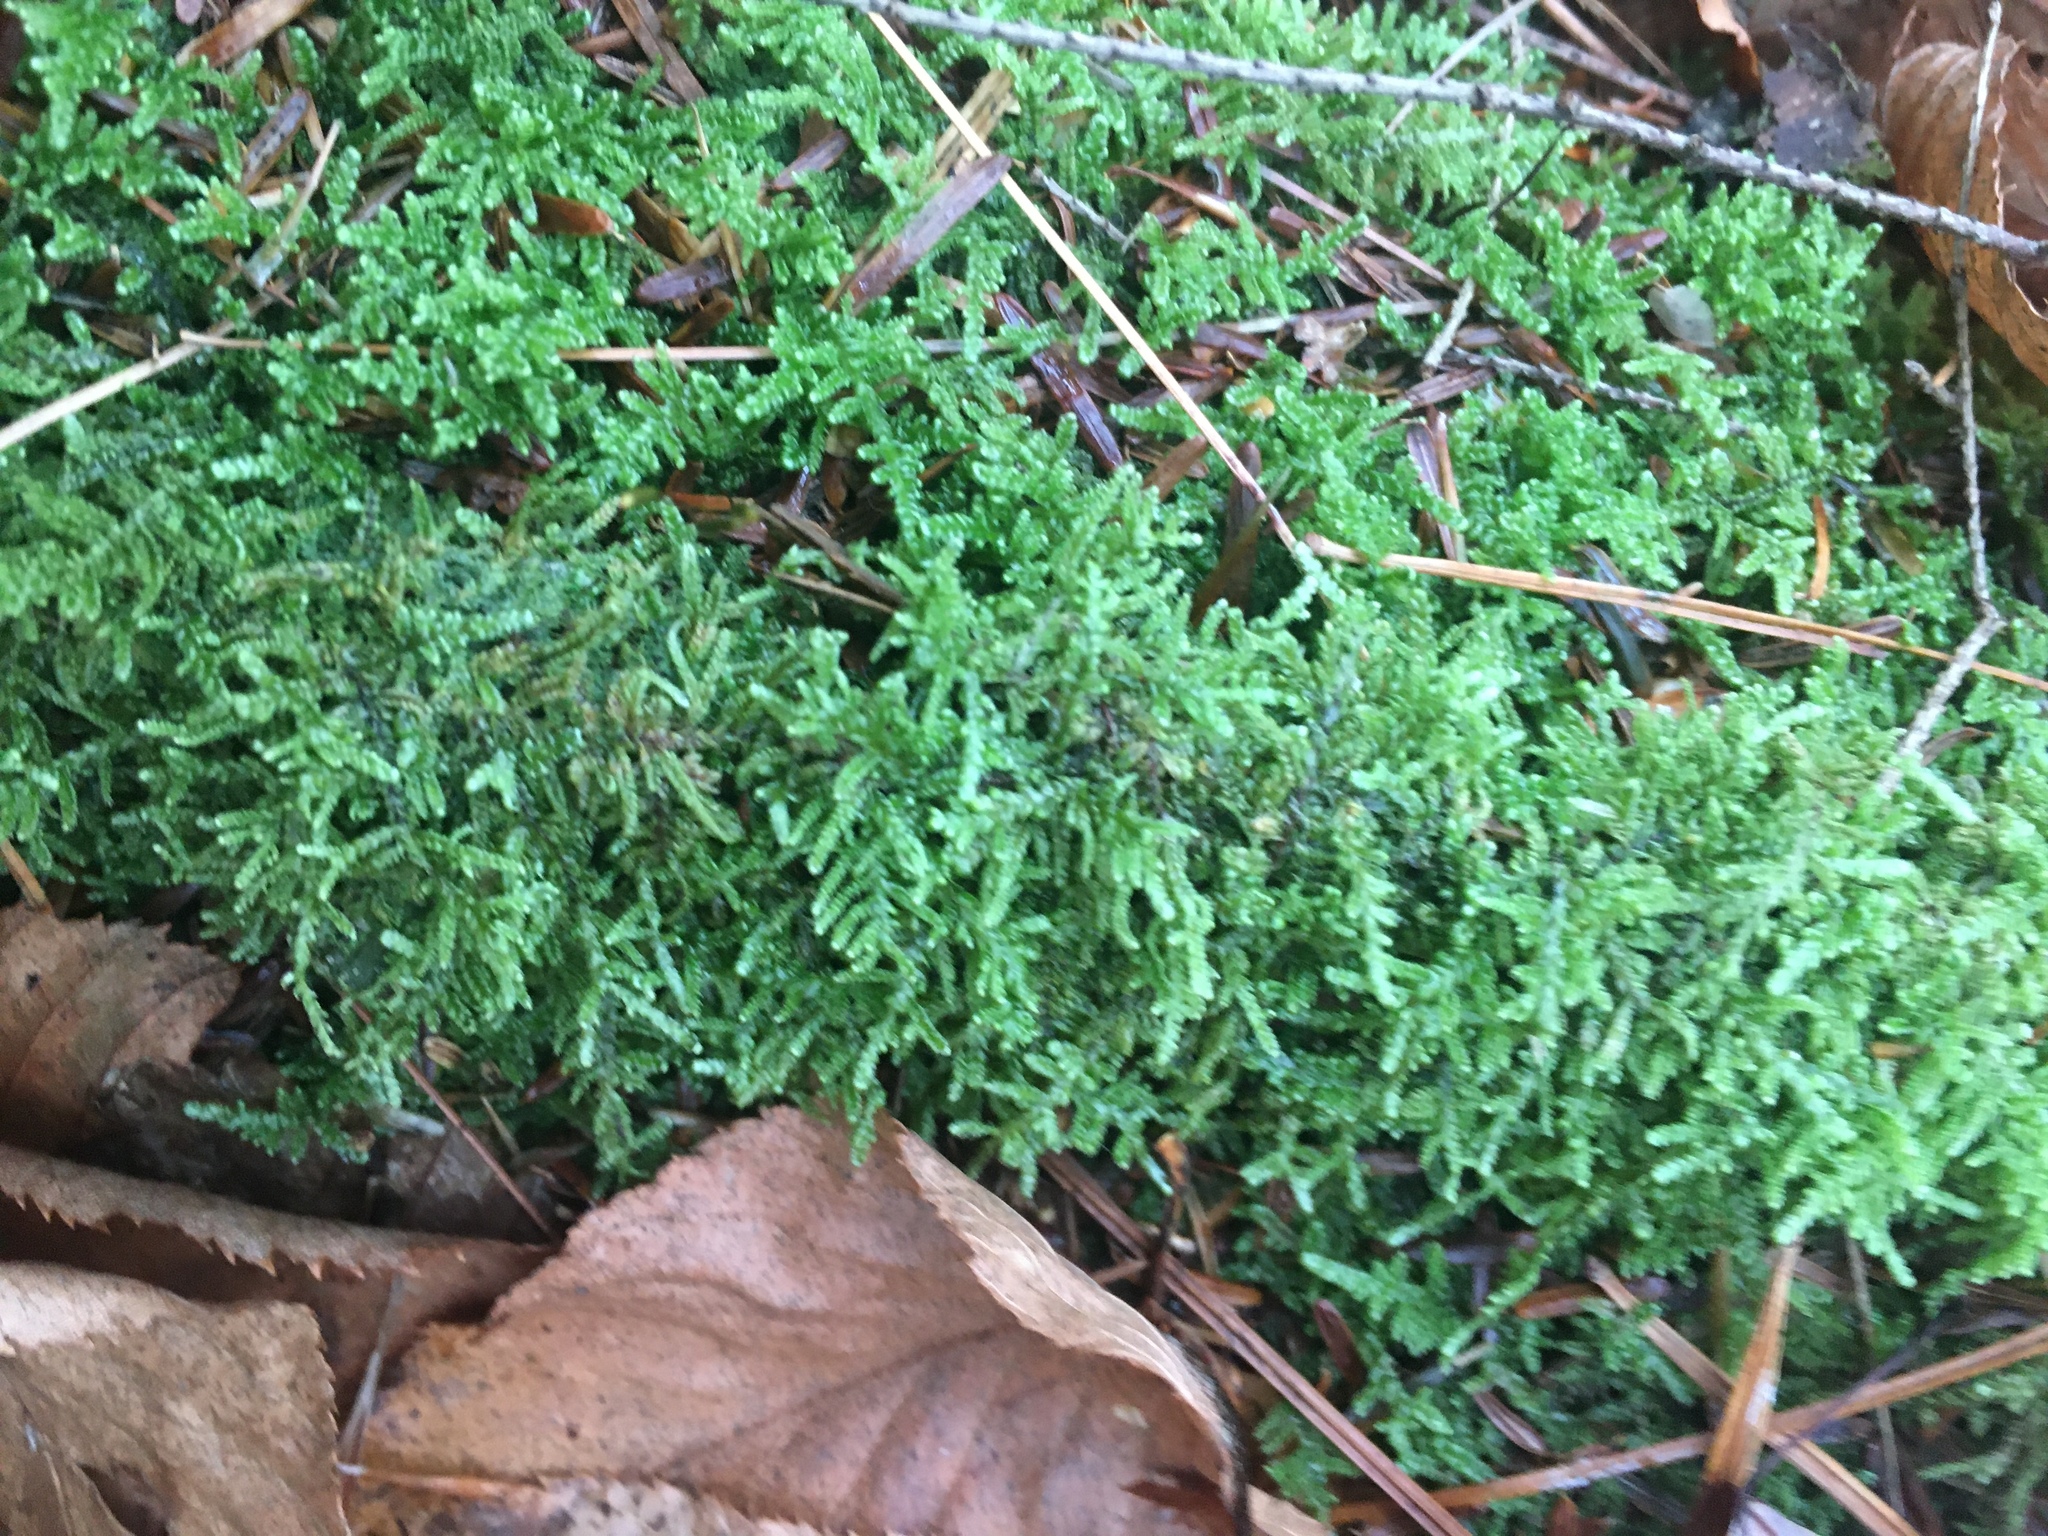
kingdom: Plantae
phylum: Bryophyta
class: Bryopsida
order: Hypnales
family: Callicladiaceae
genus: Callicladium
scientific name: Callicladium imponens
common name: Brocade moss
